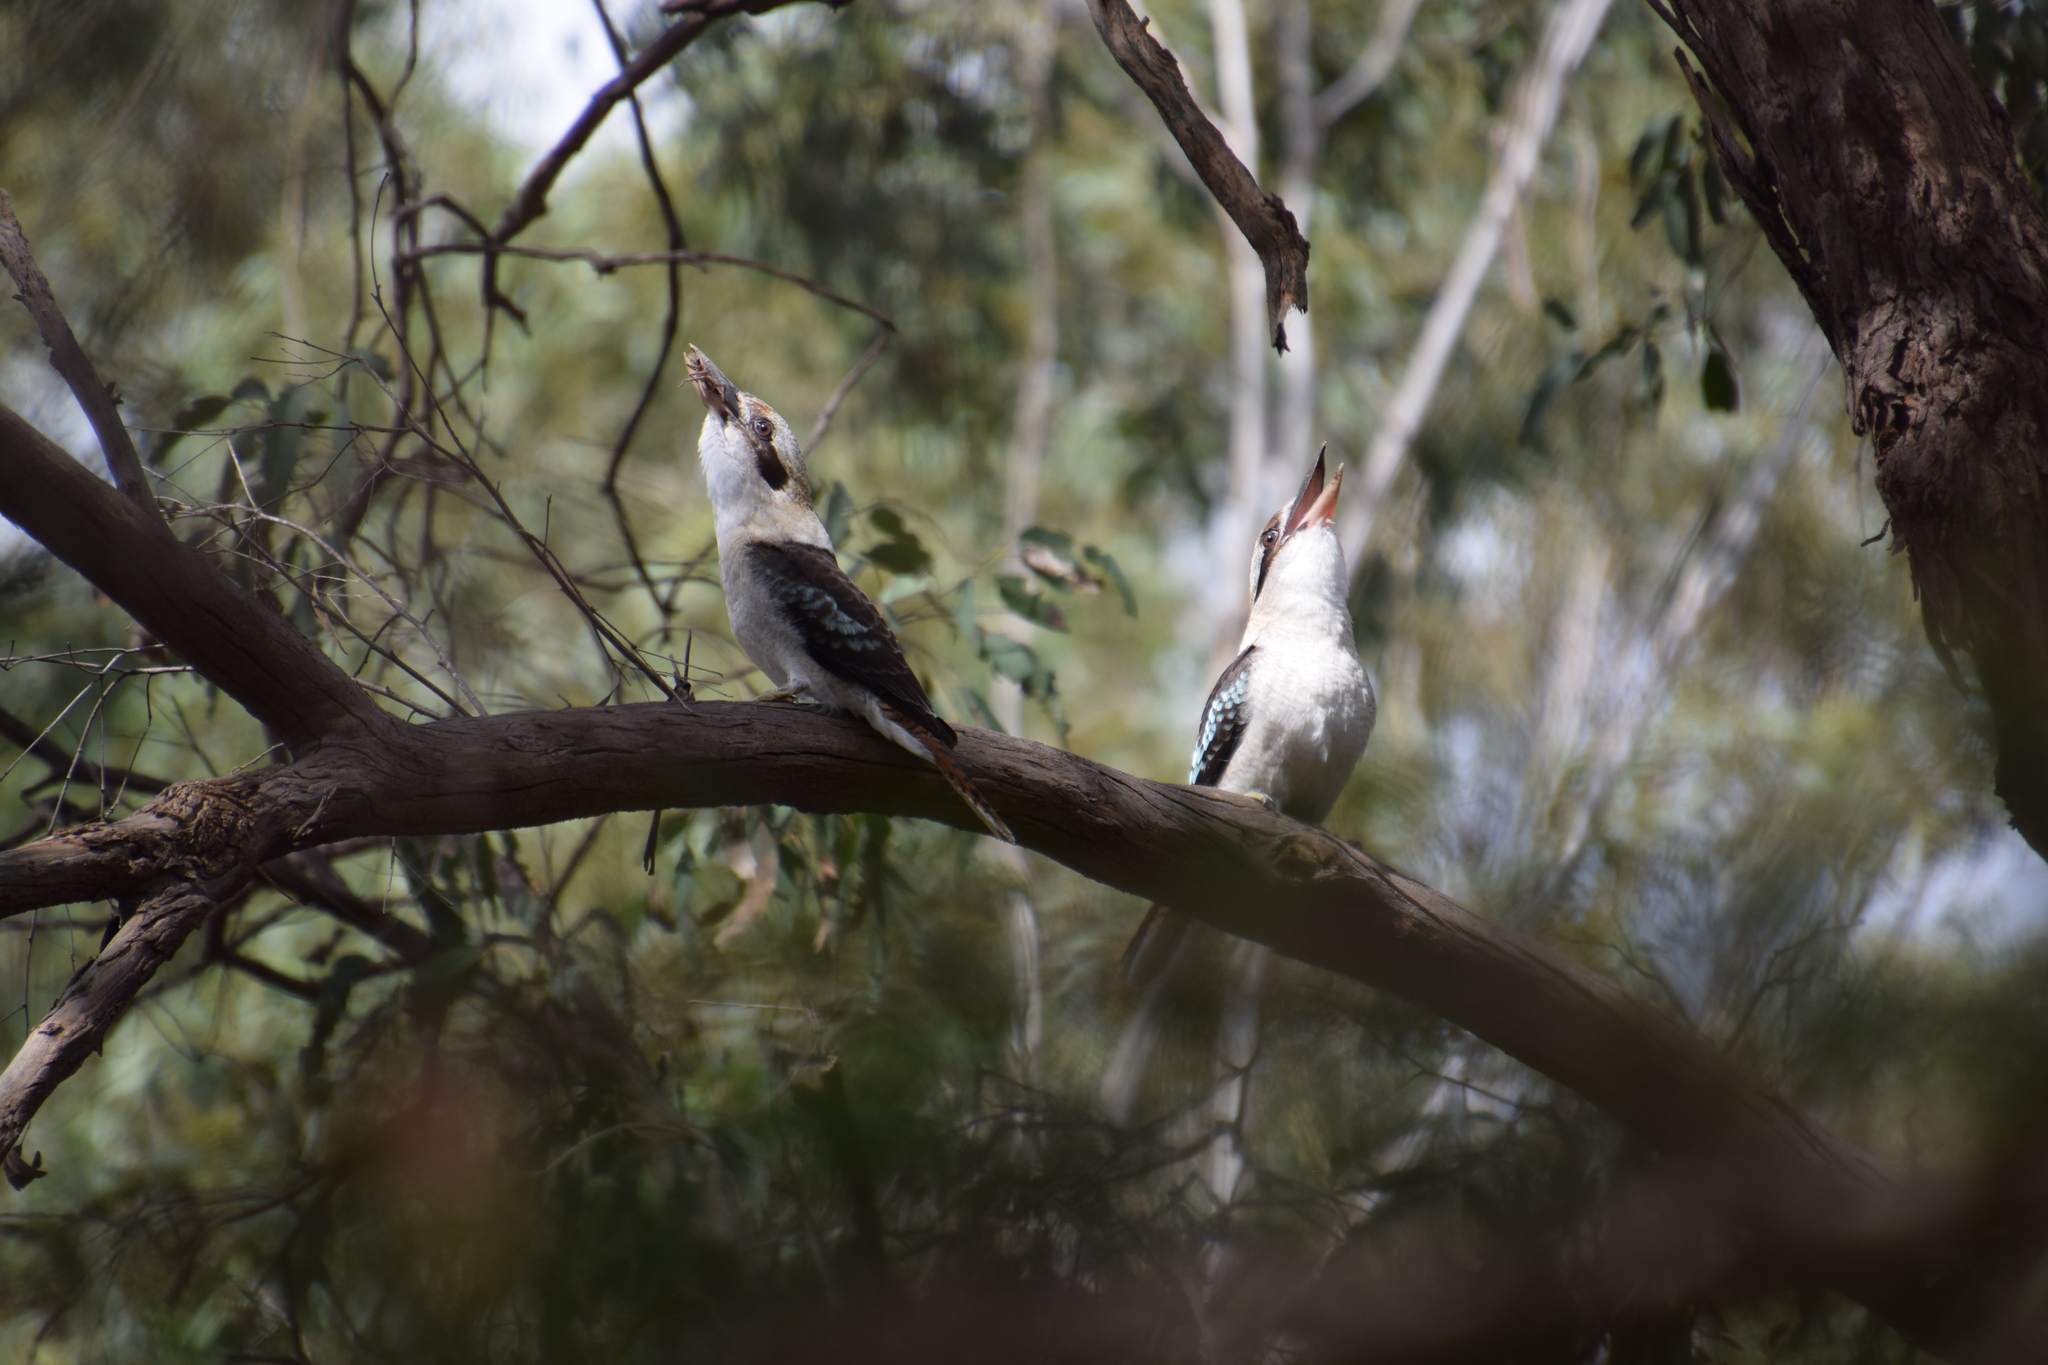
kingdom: Animalia
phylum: Chordata
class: Aves
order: Coraciiformes
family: Alcedinidae
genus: Dacelo
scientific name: Dacelo novaeguineae
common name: Laughing kookaburra
